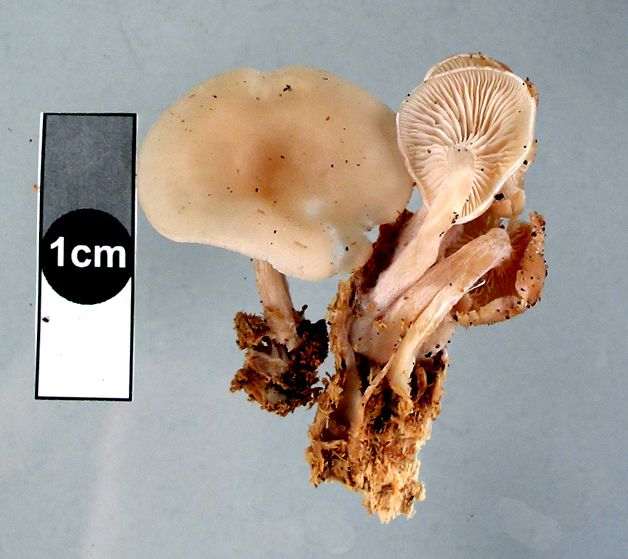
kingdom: Fungi
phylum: Basidiomycota
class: Agaricomycetes
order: Agaricales
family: Tricholomataceae
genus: Clitocybe
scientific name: Clitocybe
